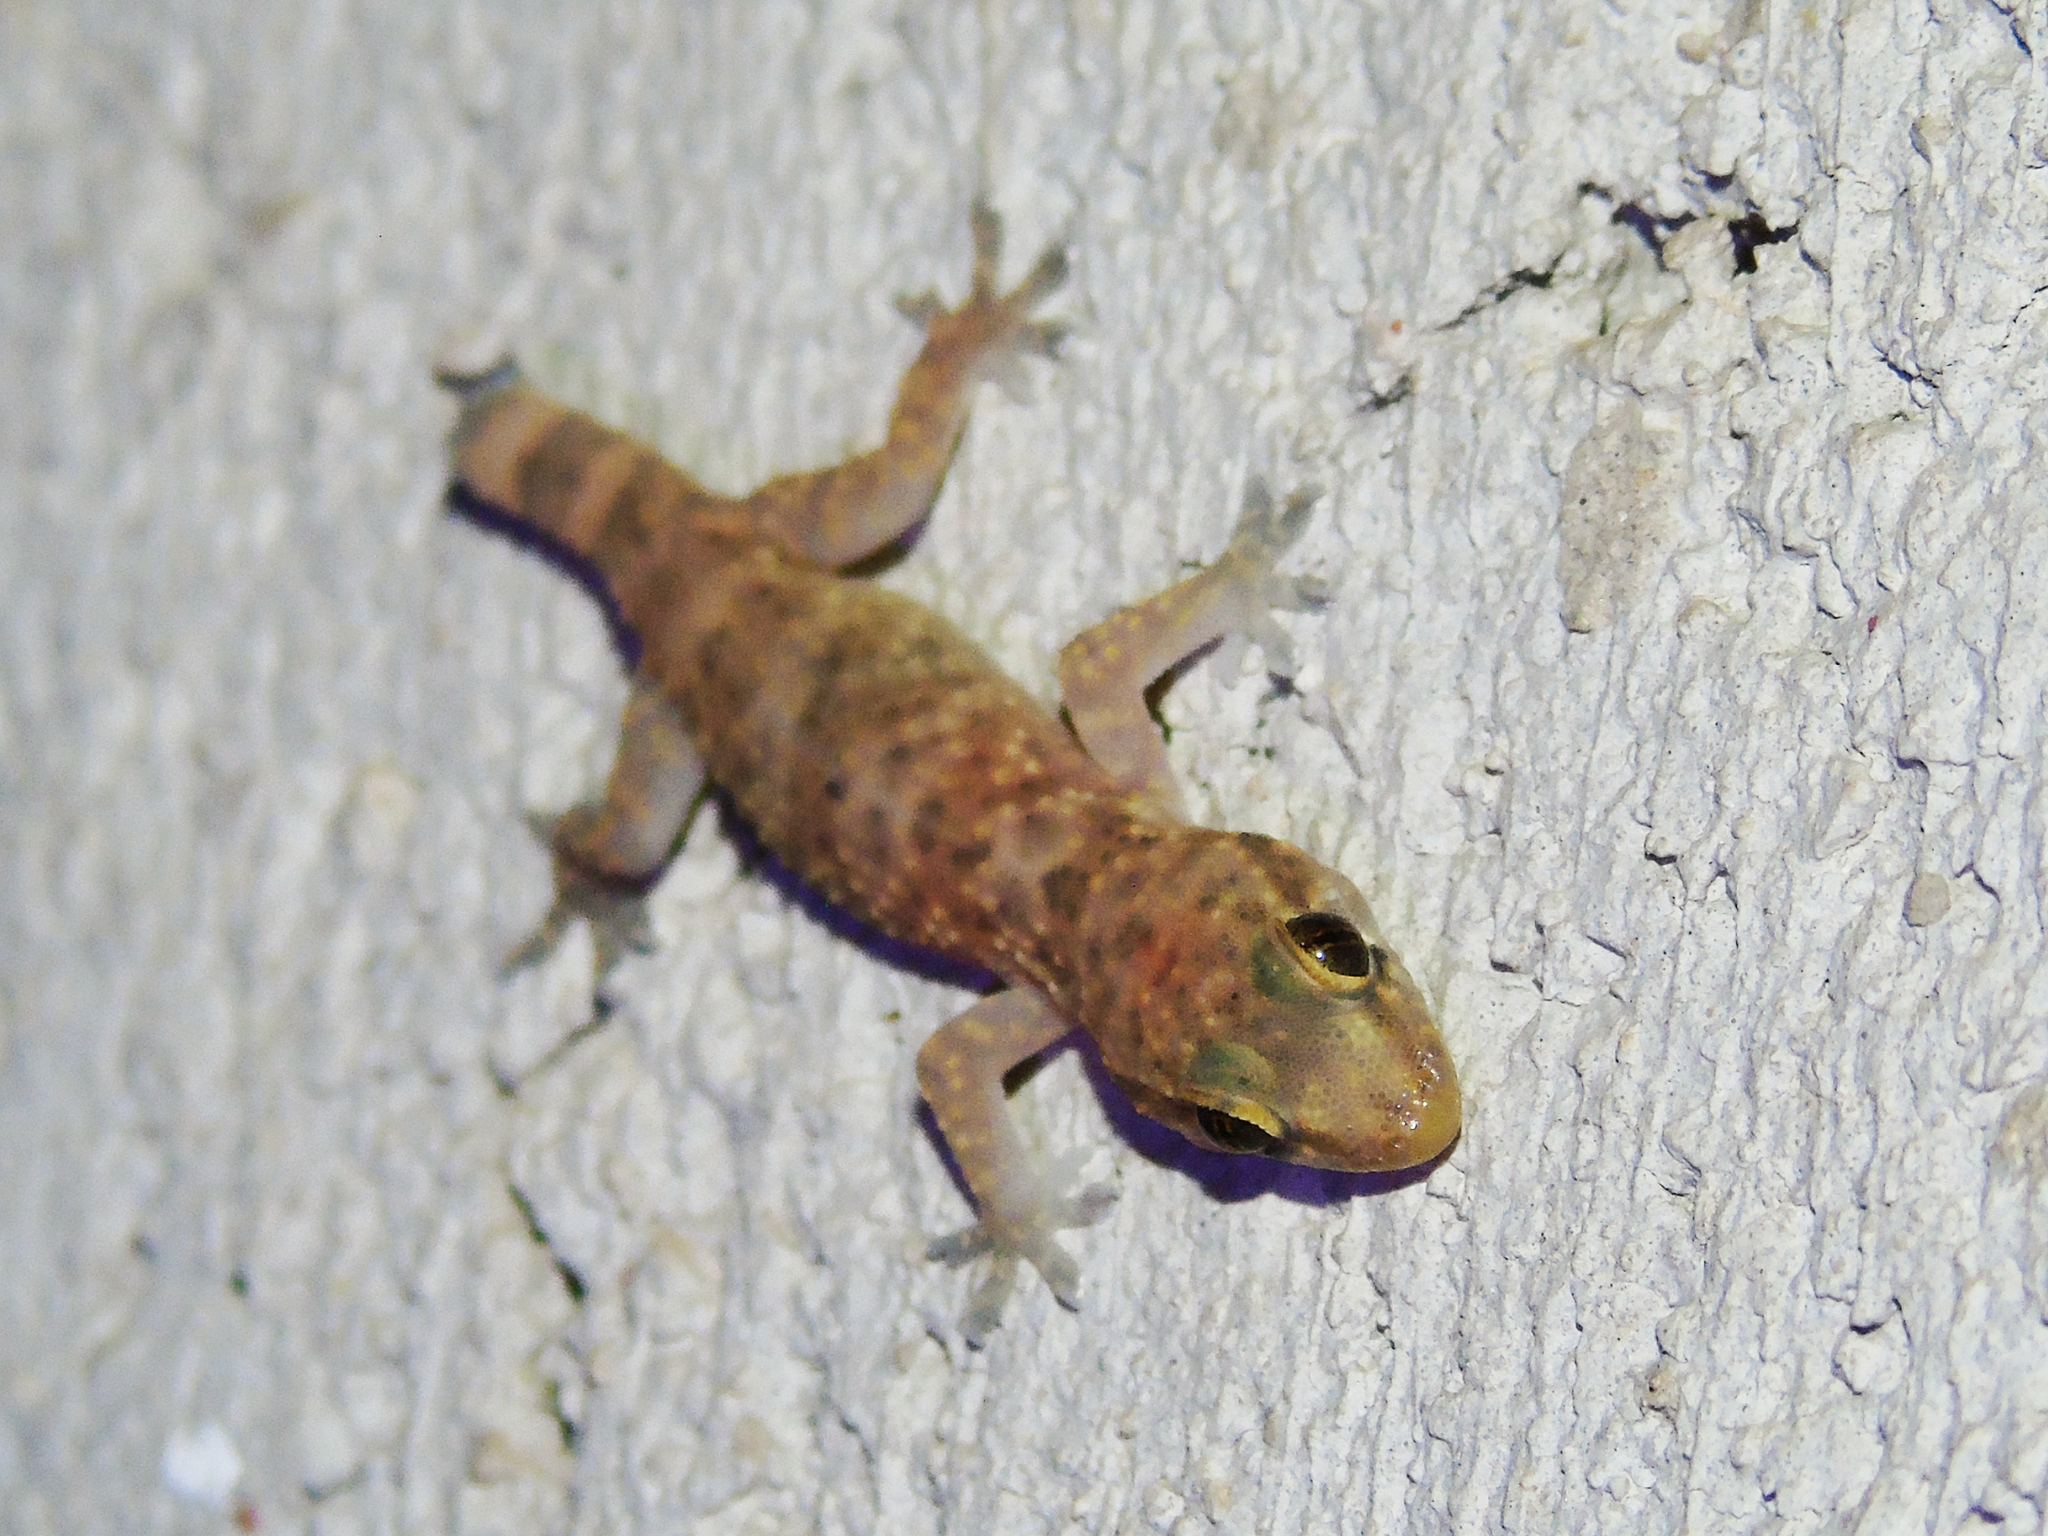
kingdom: Animalia
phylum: Chordata
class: Squamata
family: Gekkonidae
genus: Hemidactylus
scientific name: Hemidactylus turcicus
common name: Turkish gecko
